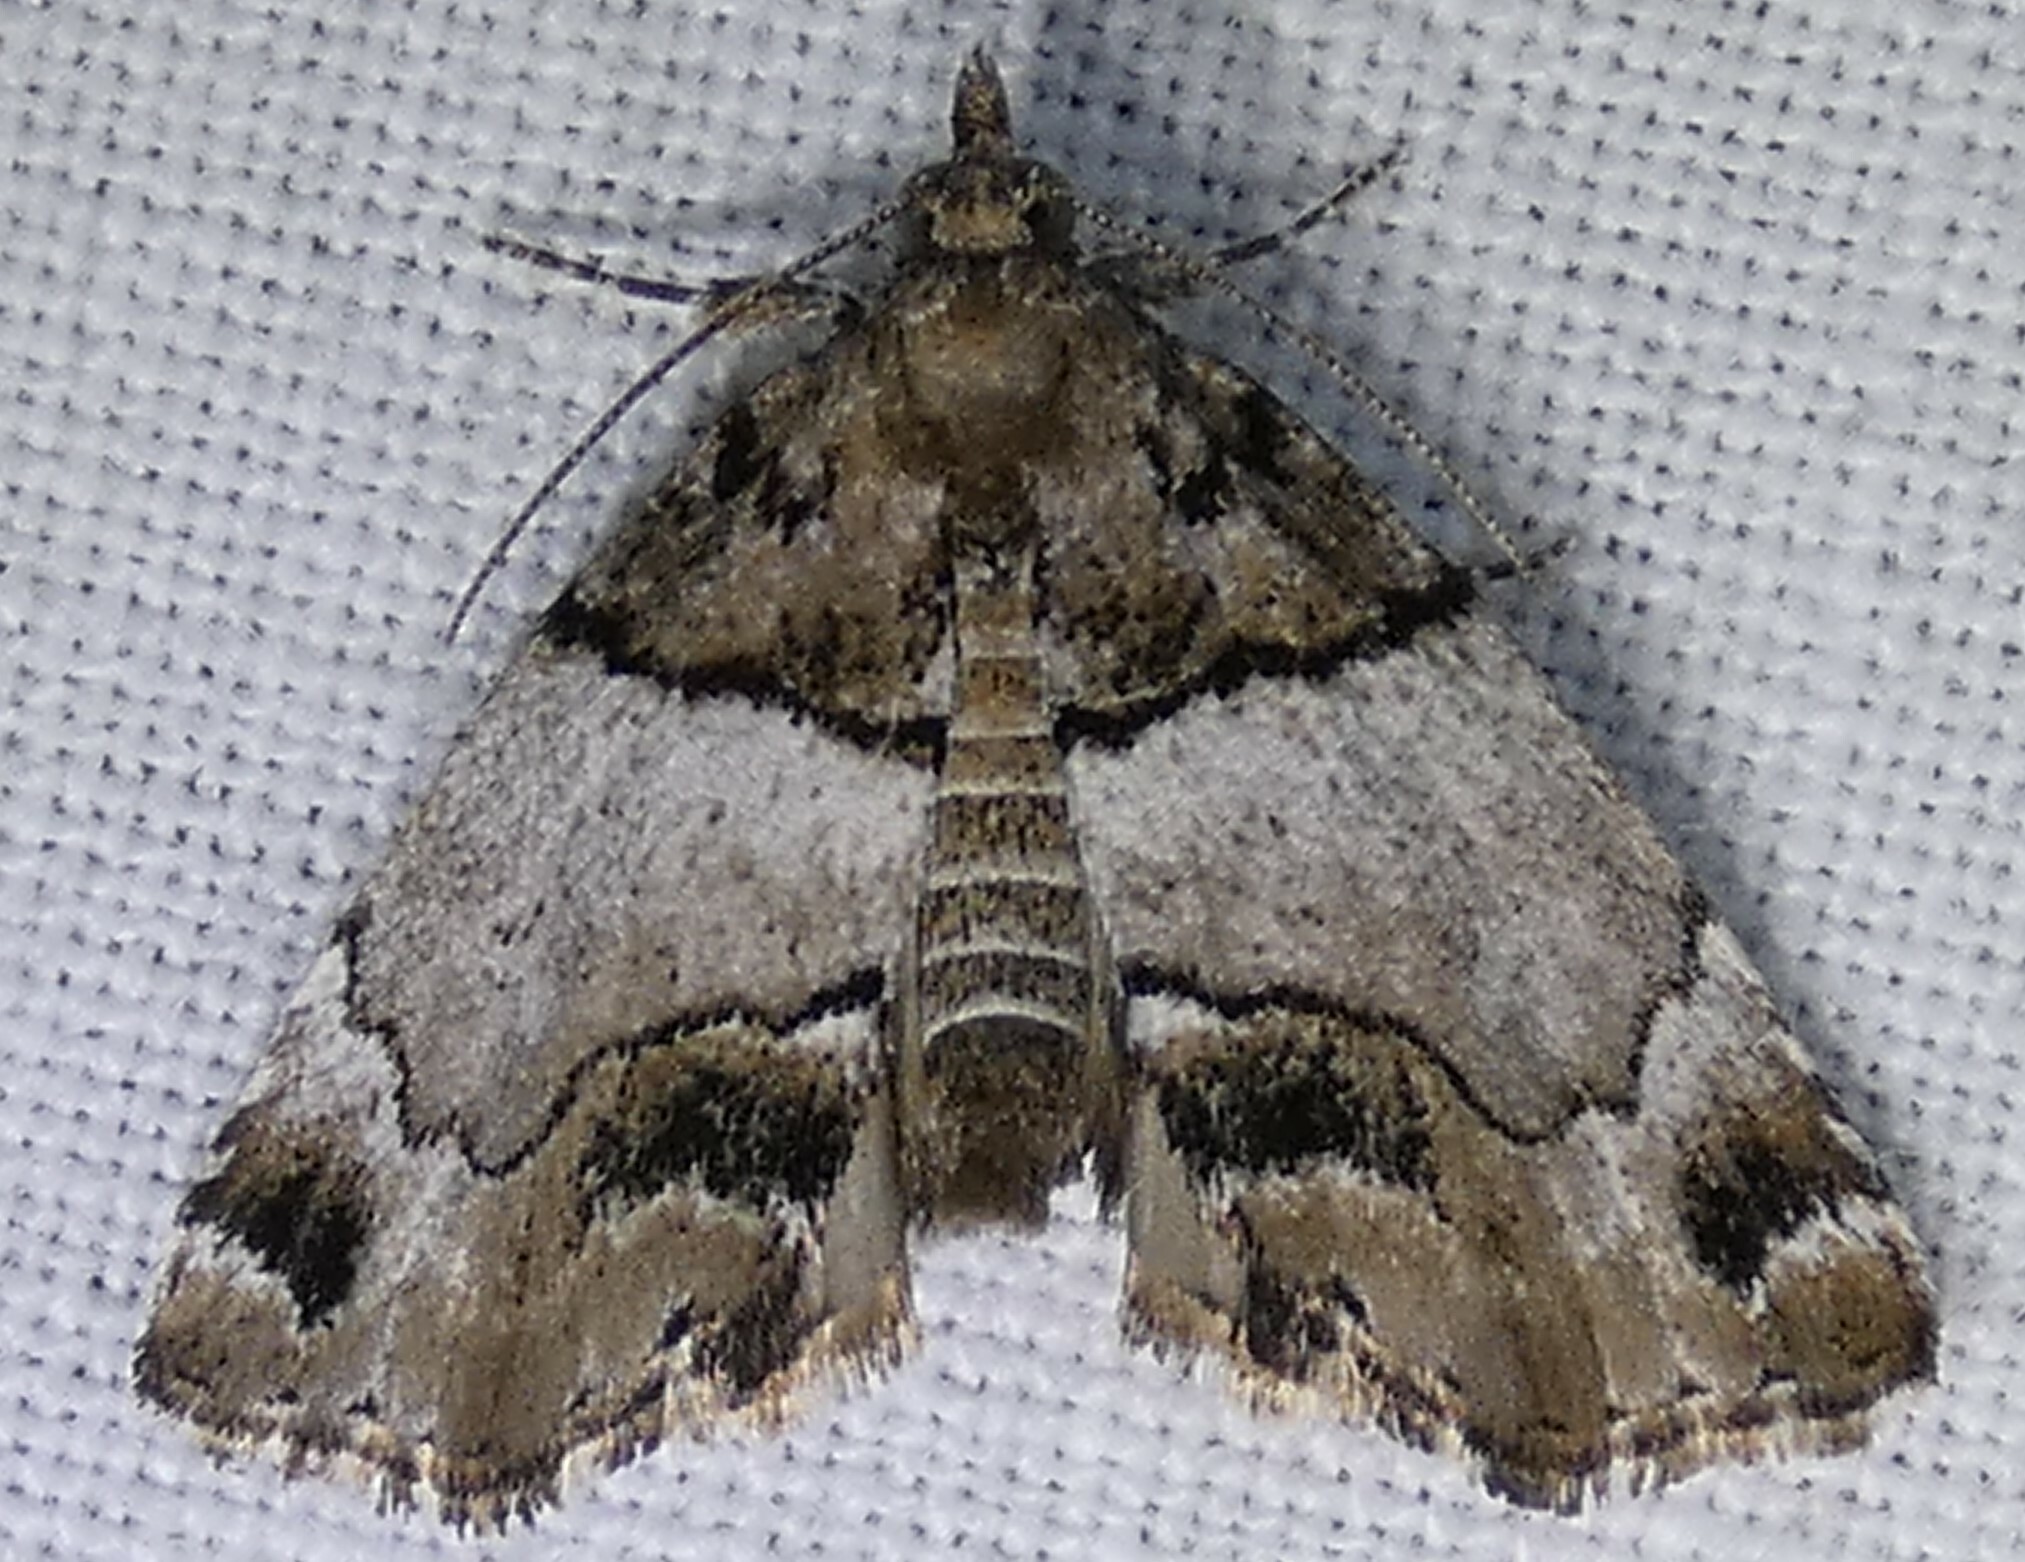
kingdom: Animalia
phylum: Arthropoda
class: Insecta
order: Lepidoptera
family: Erebidae
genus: Cutina
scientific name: Cutina distincta
